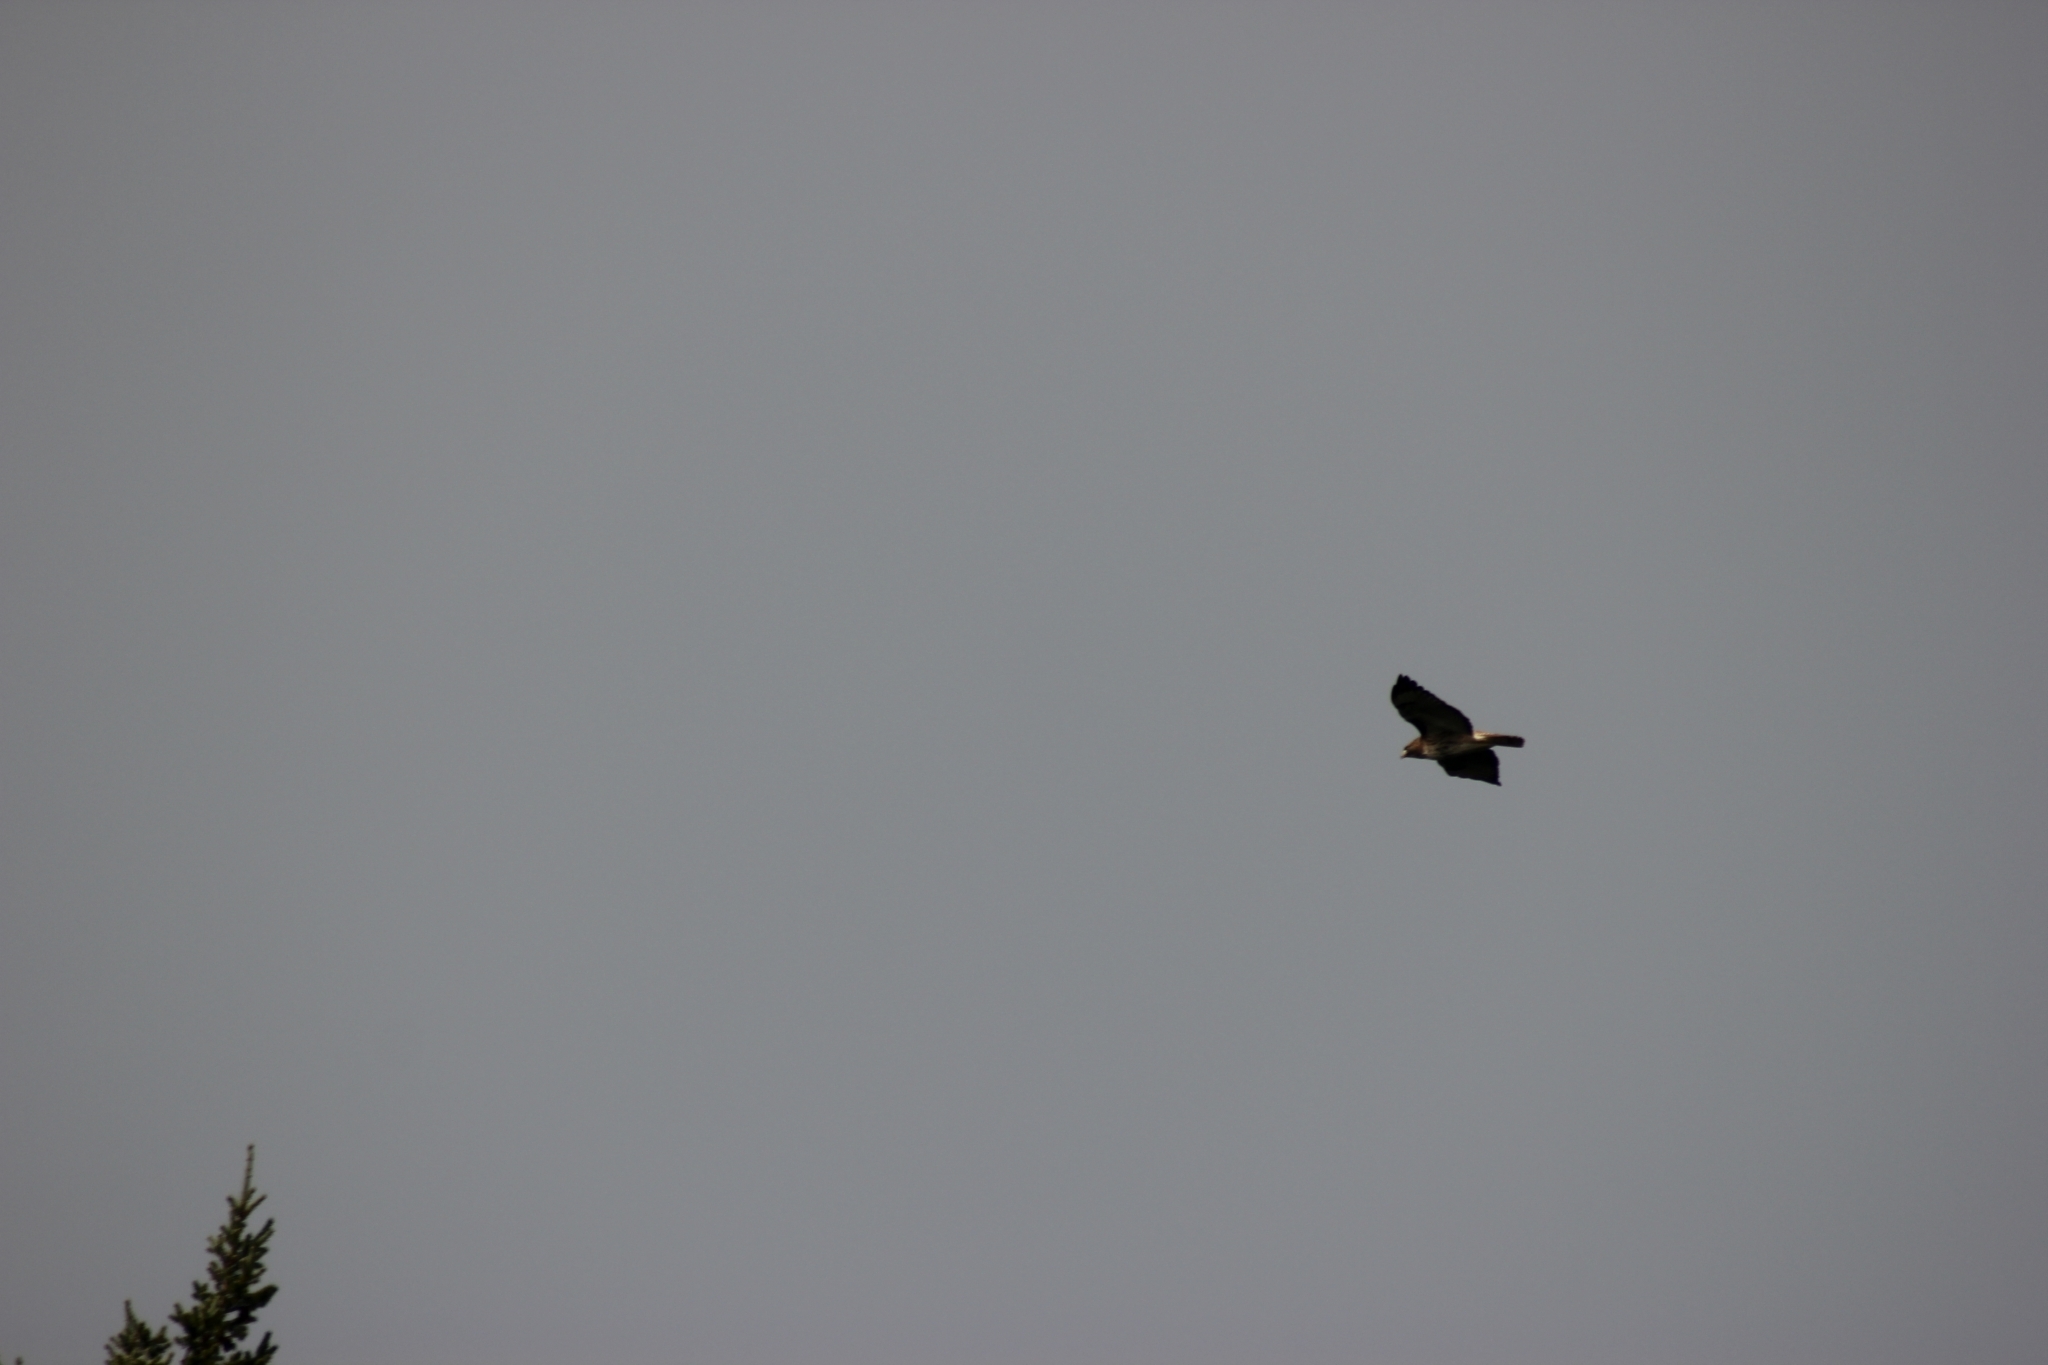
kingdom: Animalia
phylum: Chordata
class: Aves
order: Accipitriformes
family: Accipitridae
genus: Buteo
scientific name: Buteo jamaicensis
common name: Red-tailed hawk
